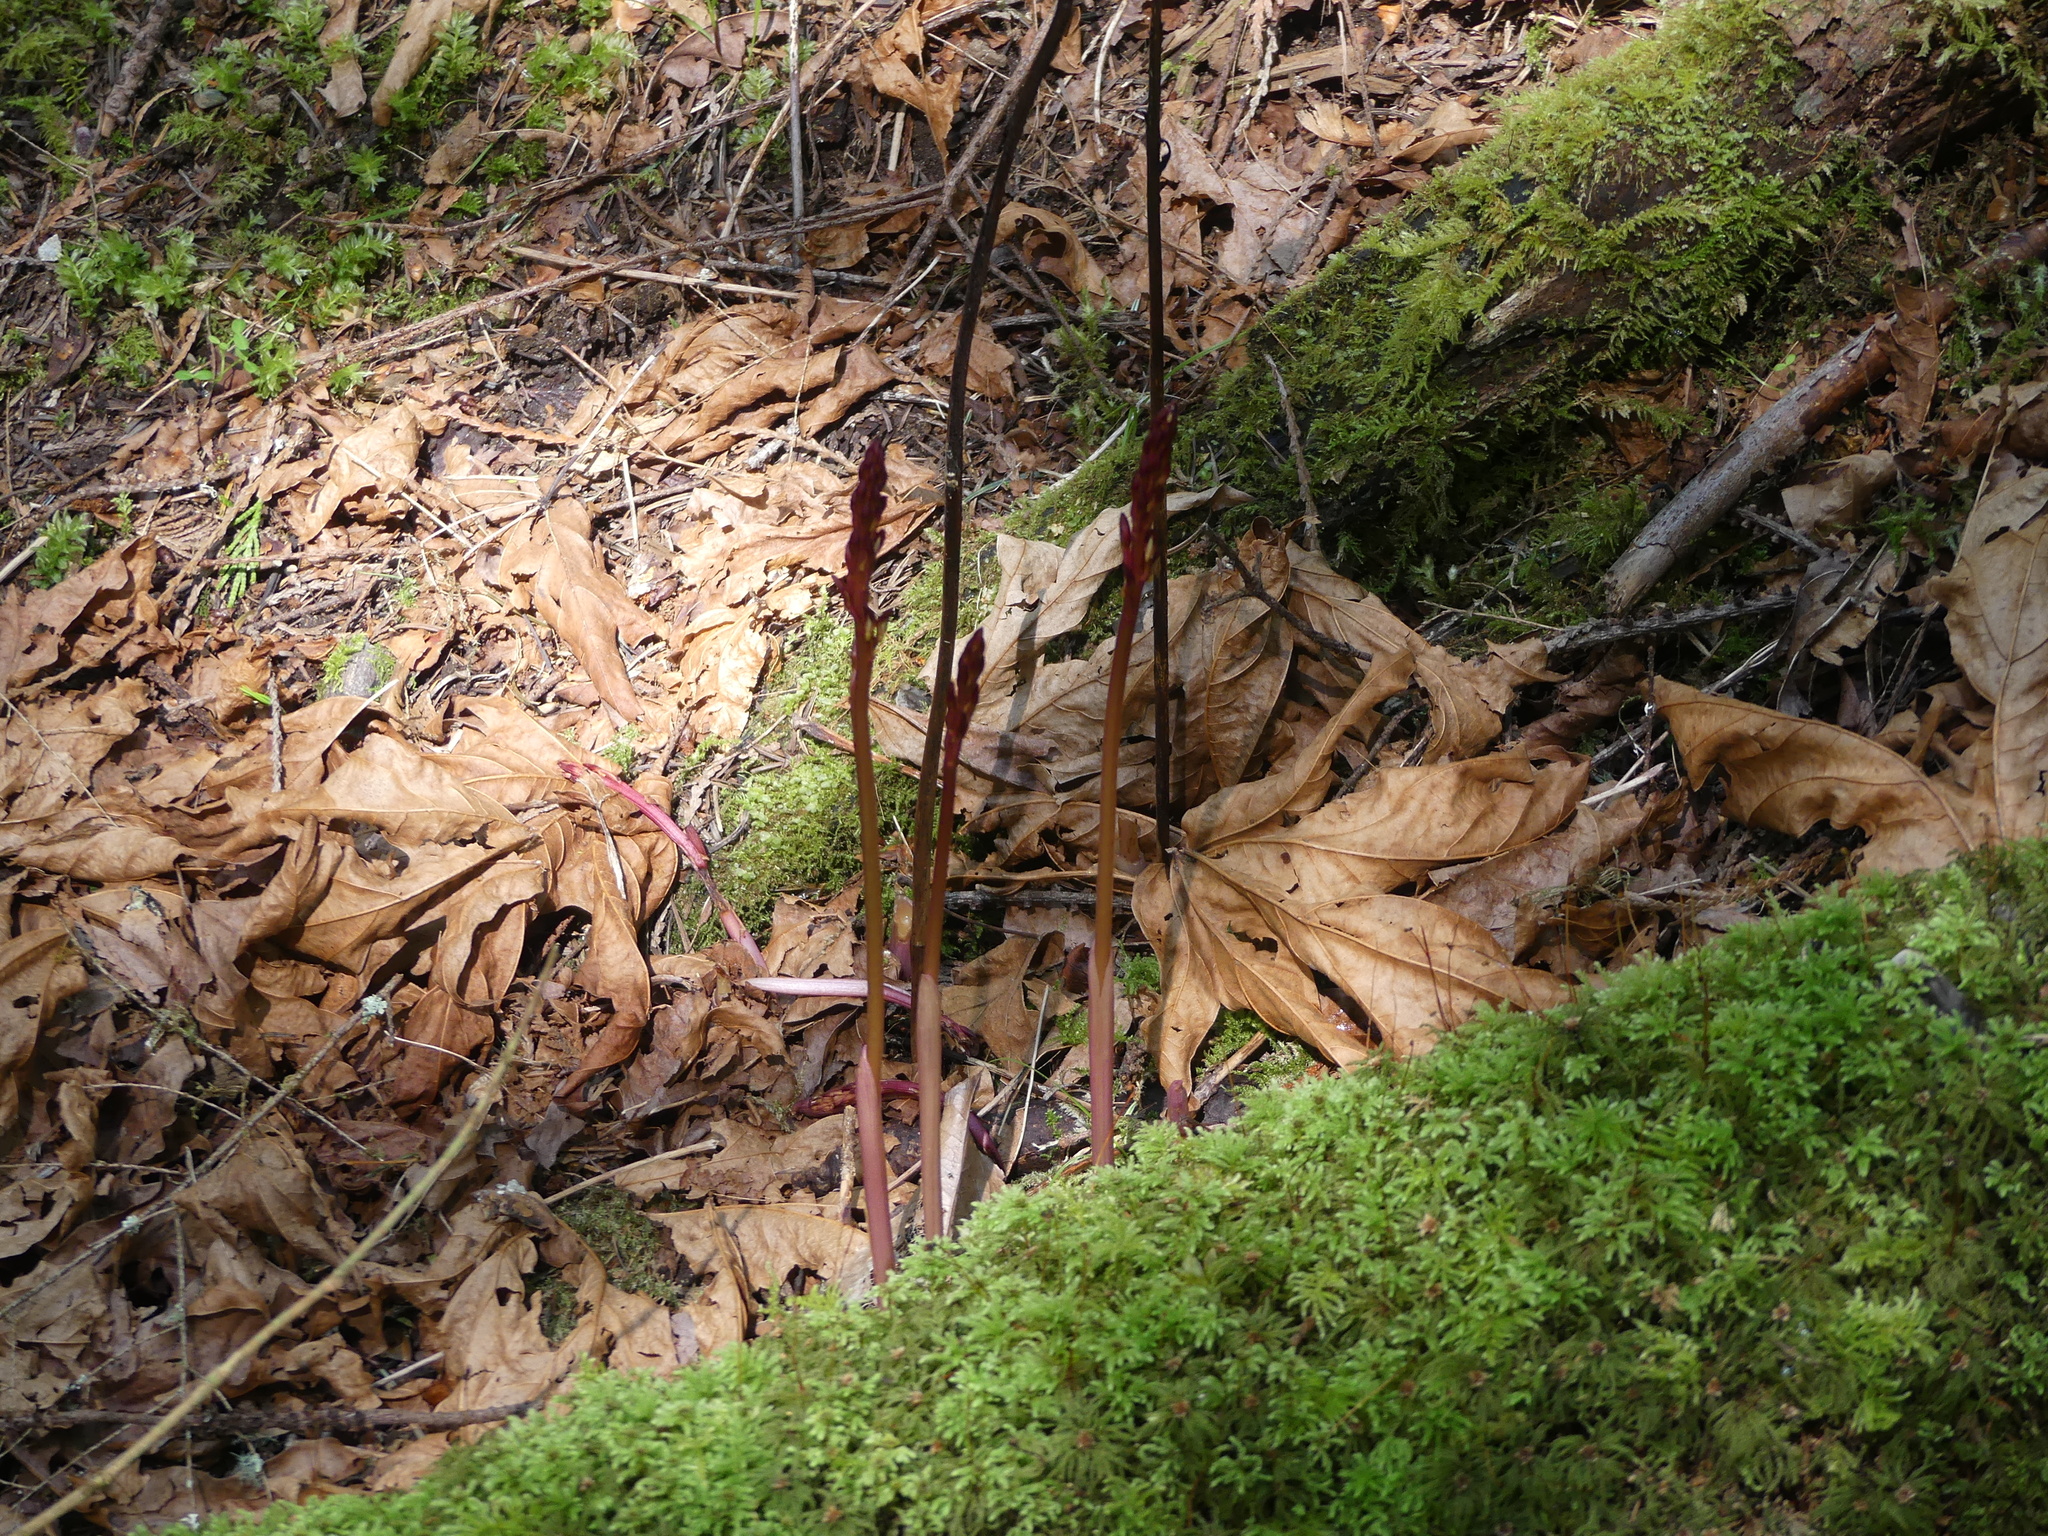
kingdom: Plantae
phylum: Tracheophyta
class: Liliopsida
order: Asparagales
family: Orchidaceae
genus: Corallorhiza
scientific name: Corallorhiza maculata
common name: Spotted coralroot
